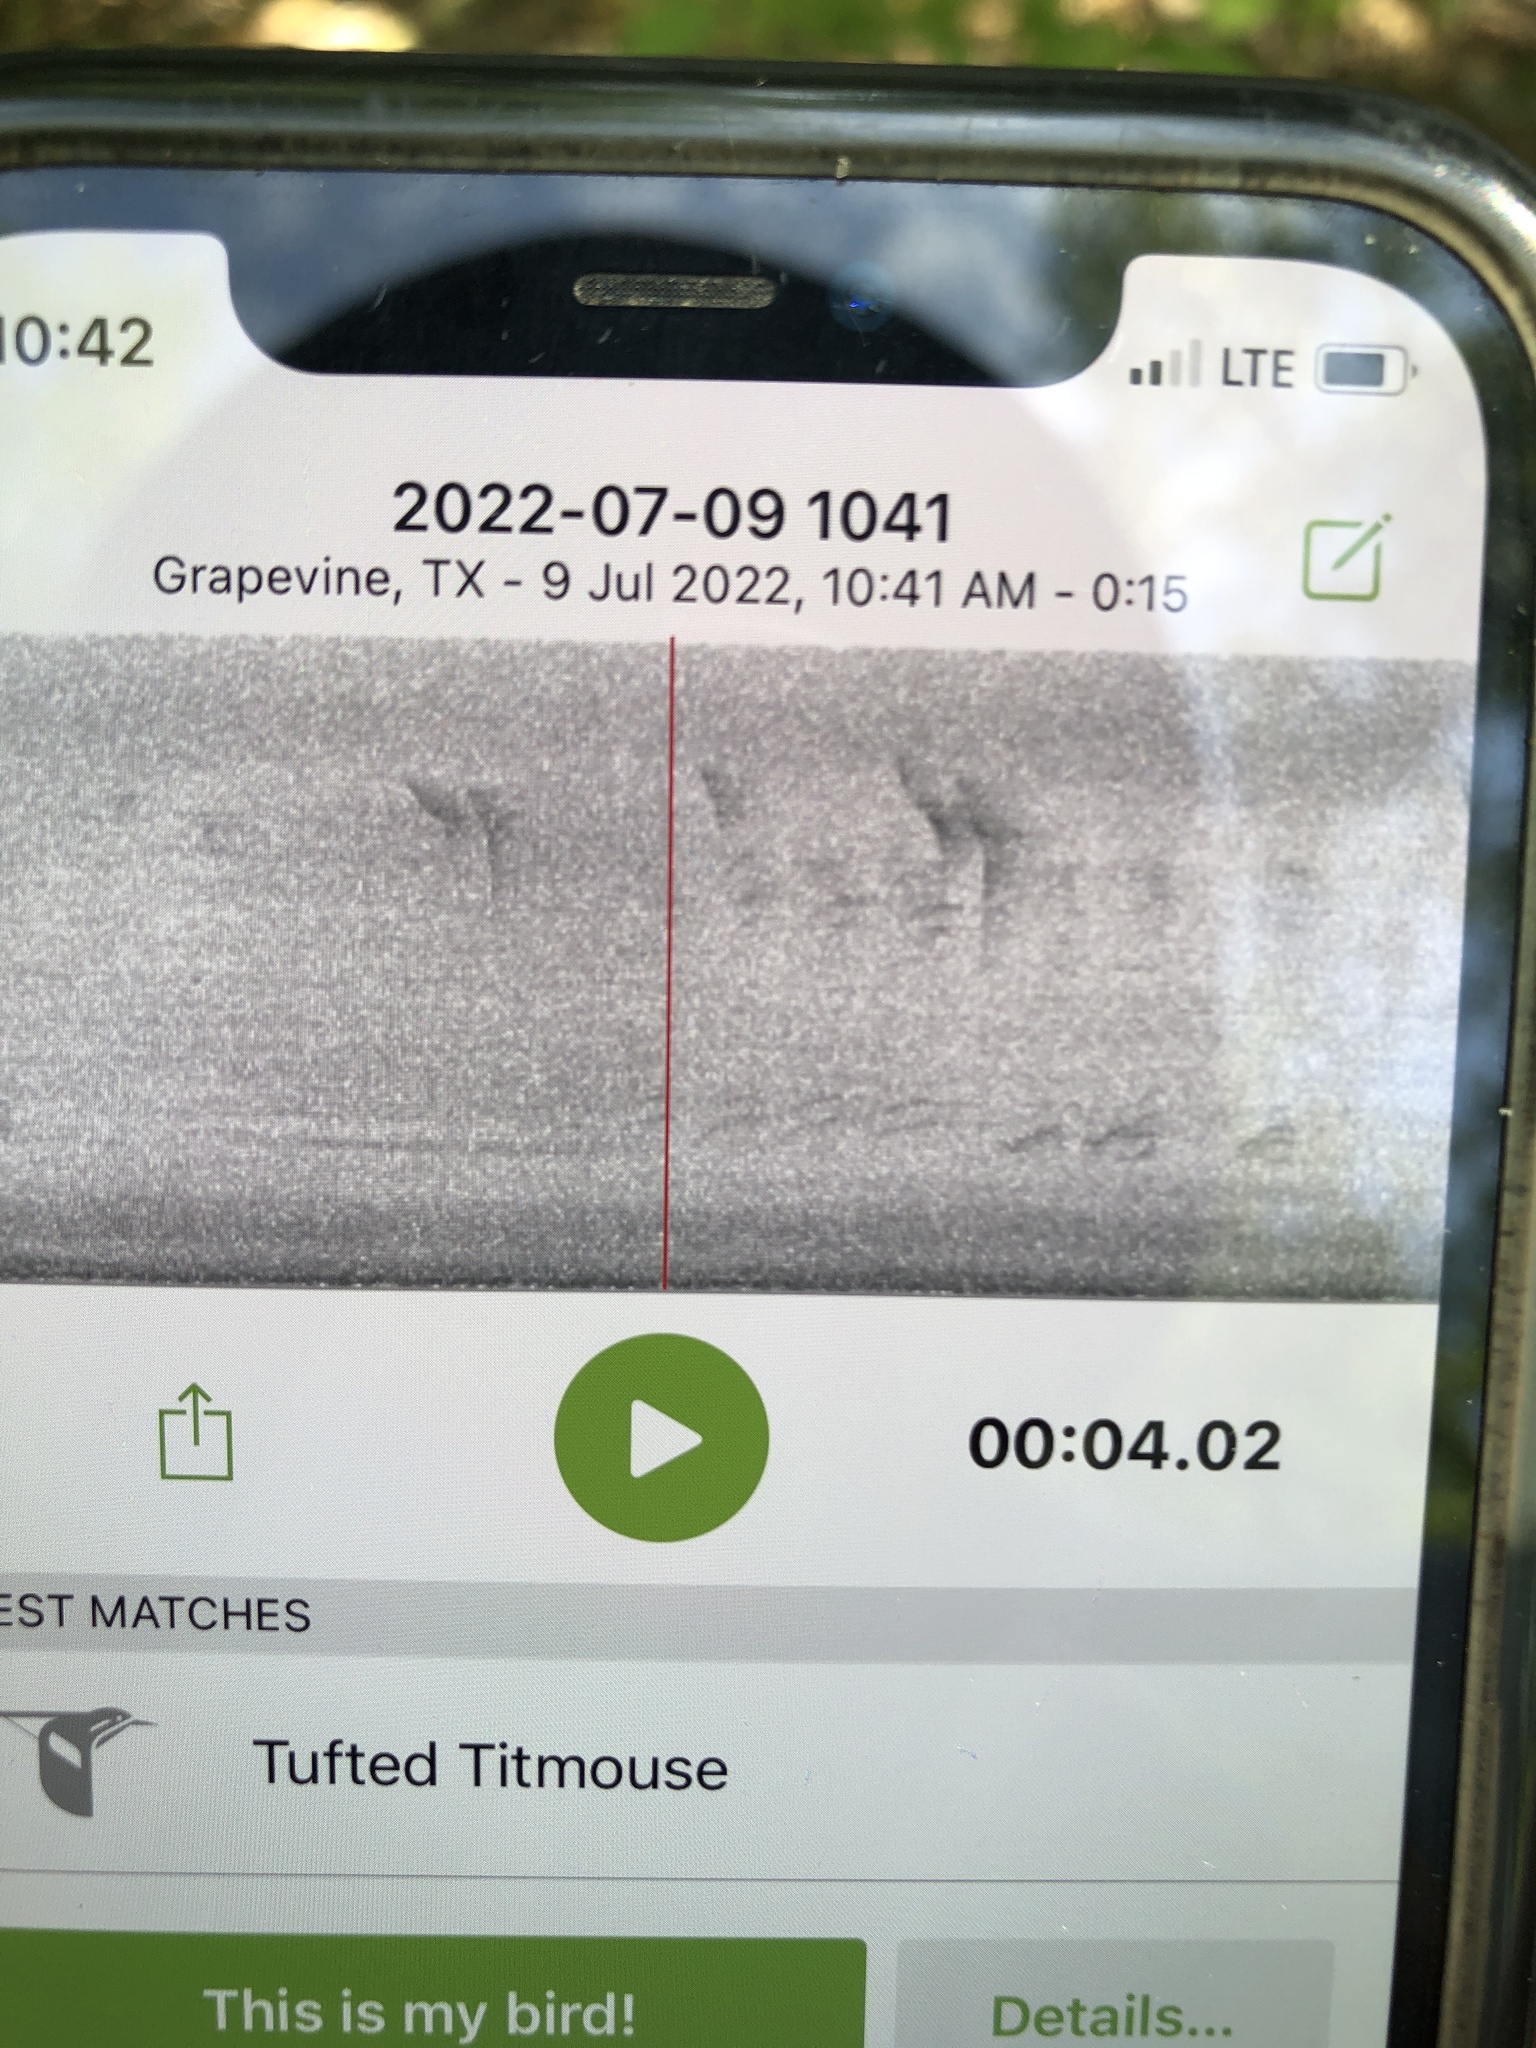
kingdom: Animalia
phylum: Chordata
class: Aves
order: Passeriformes
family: Paridae
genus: Baeolophus
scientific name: Baeolophus bicolor
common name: Tufted titmouse
